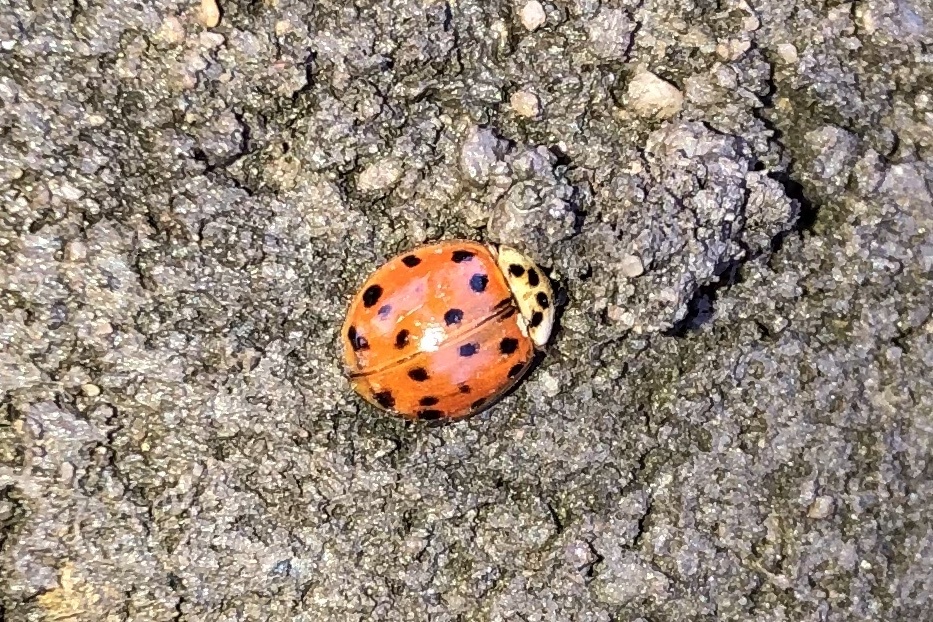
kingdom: Animalia
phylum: Arthropoda
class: Insecta
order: Coleoptera
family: Coccinellidae
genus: Harmonia
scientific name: Harmonia axyridis
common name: Harlequin ladybird
